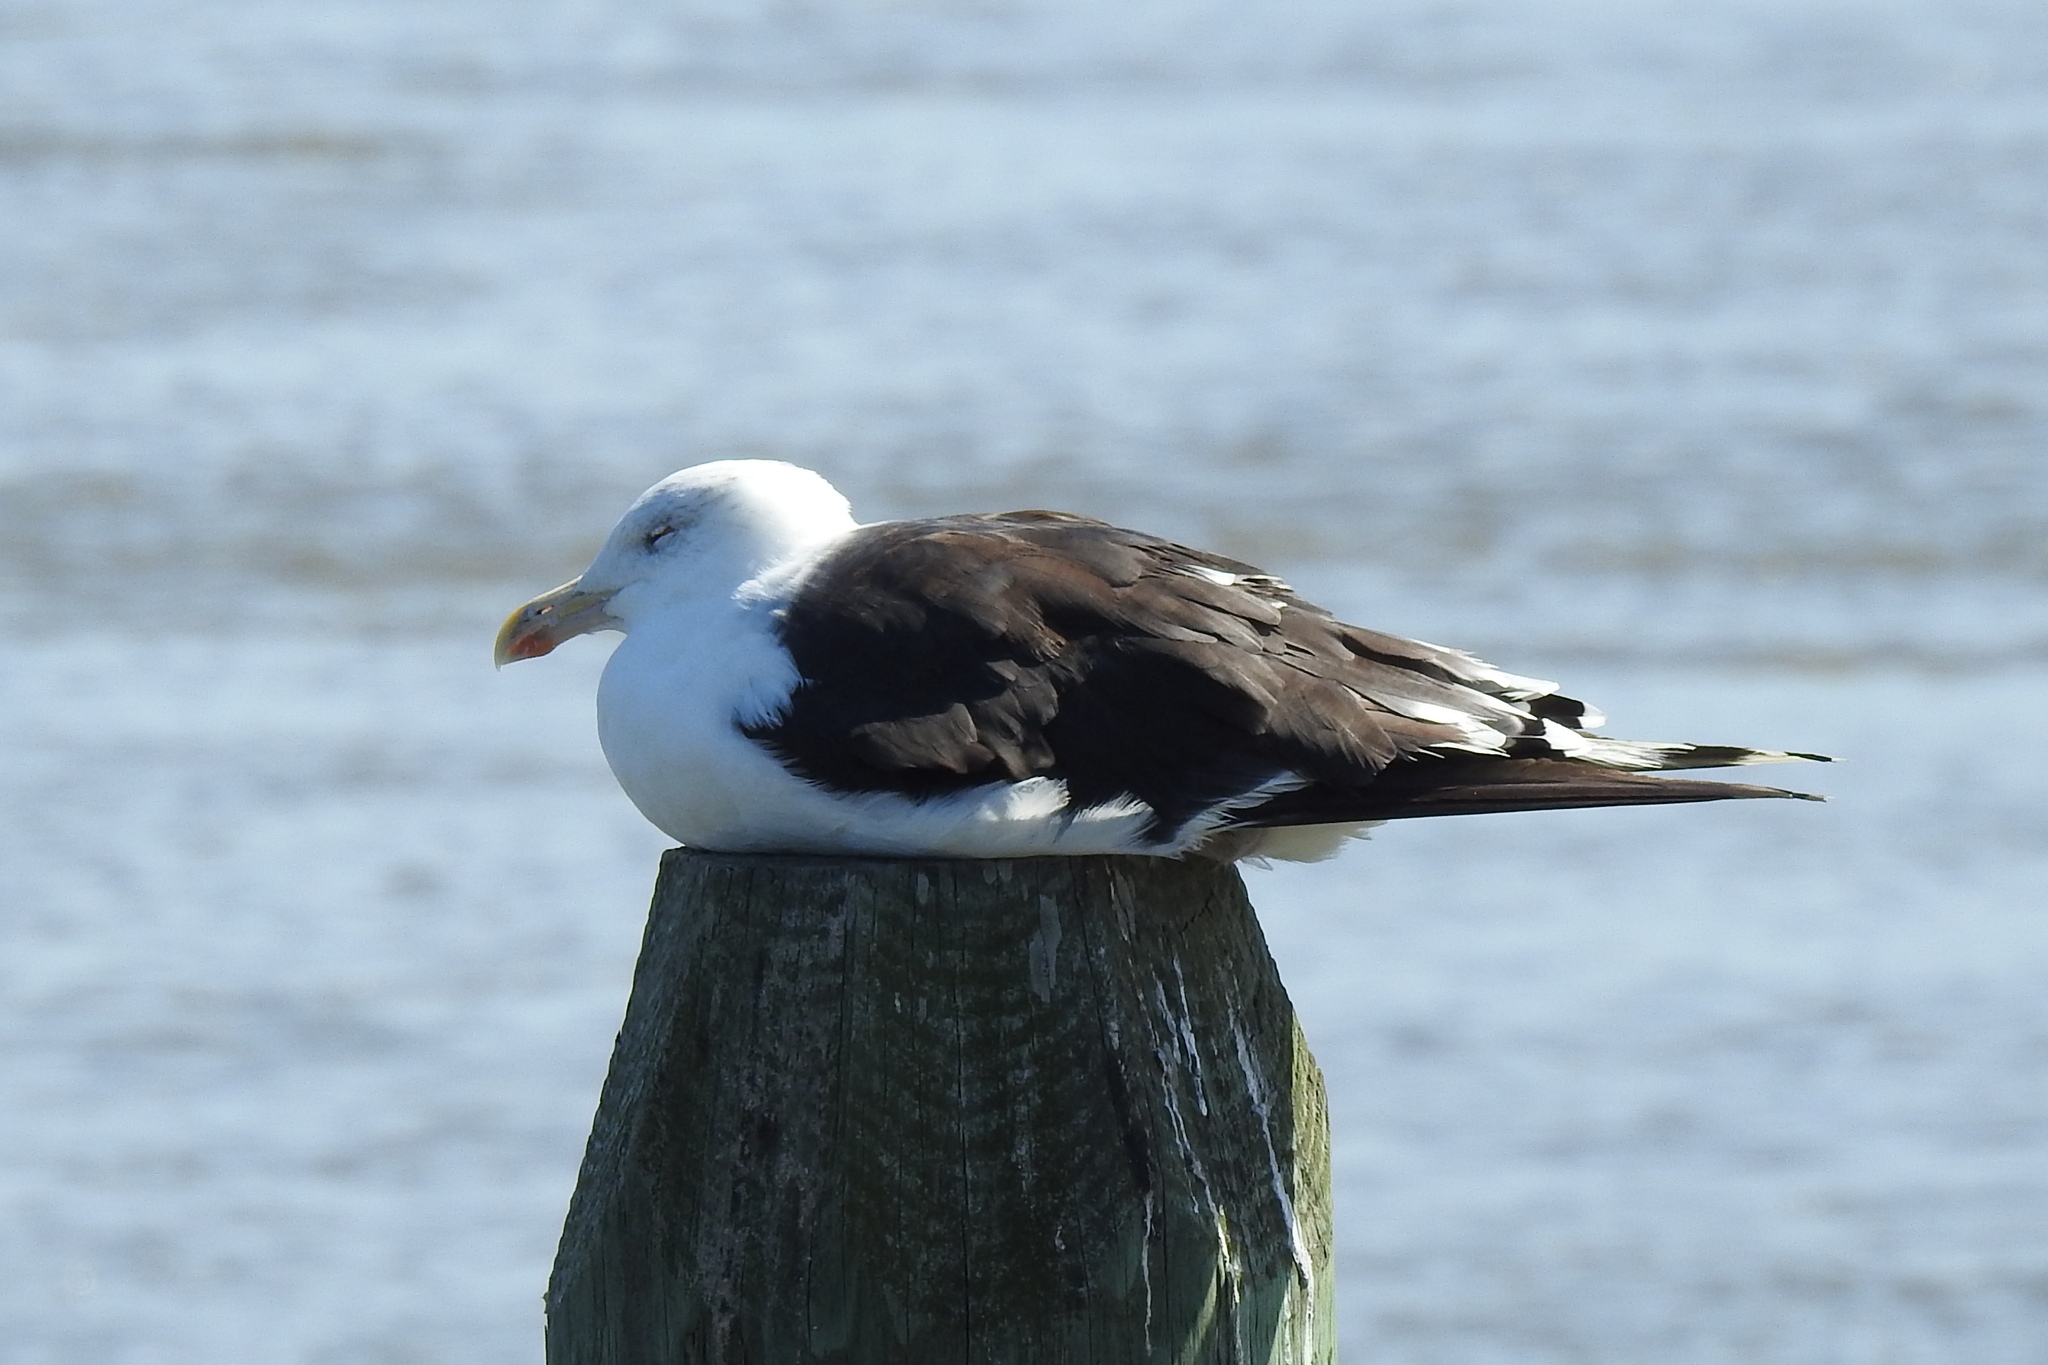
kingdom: Animalia
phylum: Chordata
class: Aves
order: Charadriiformes
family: Laridae
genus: Larus
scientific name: Larus marinus
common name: Great black-backed gull
